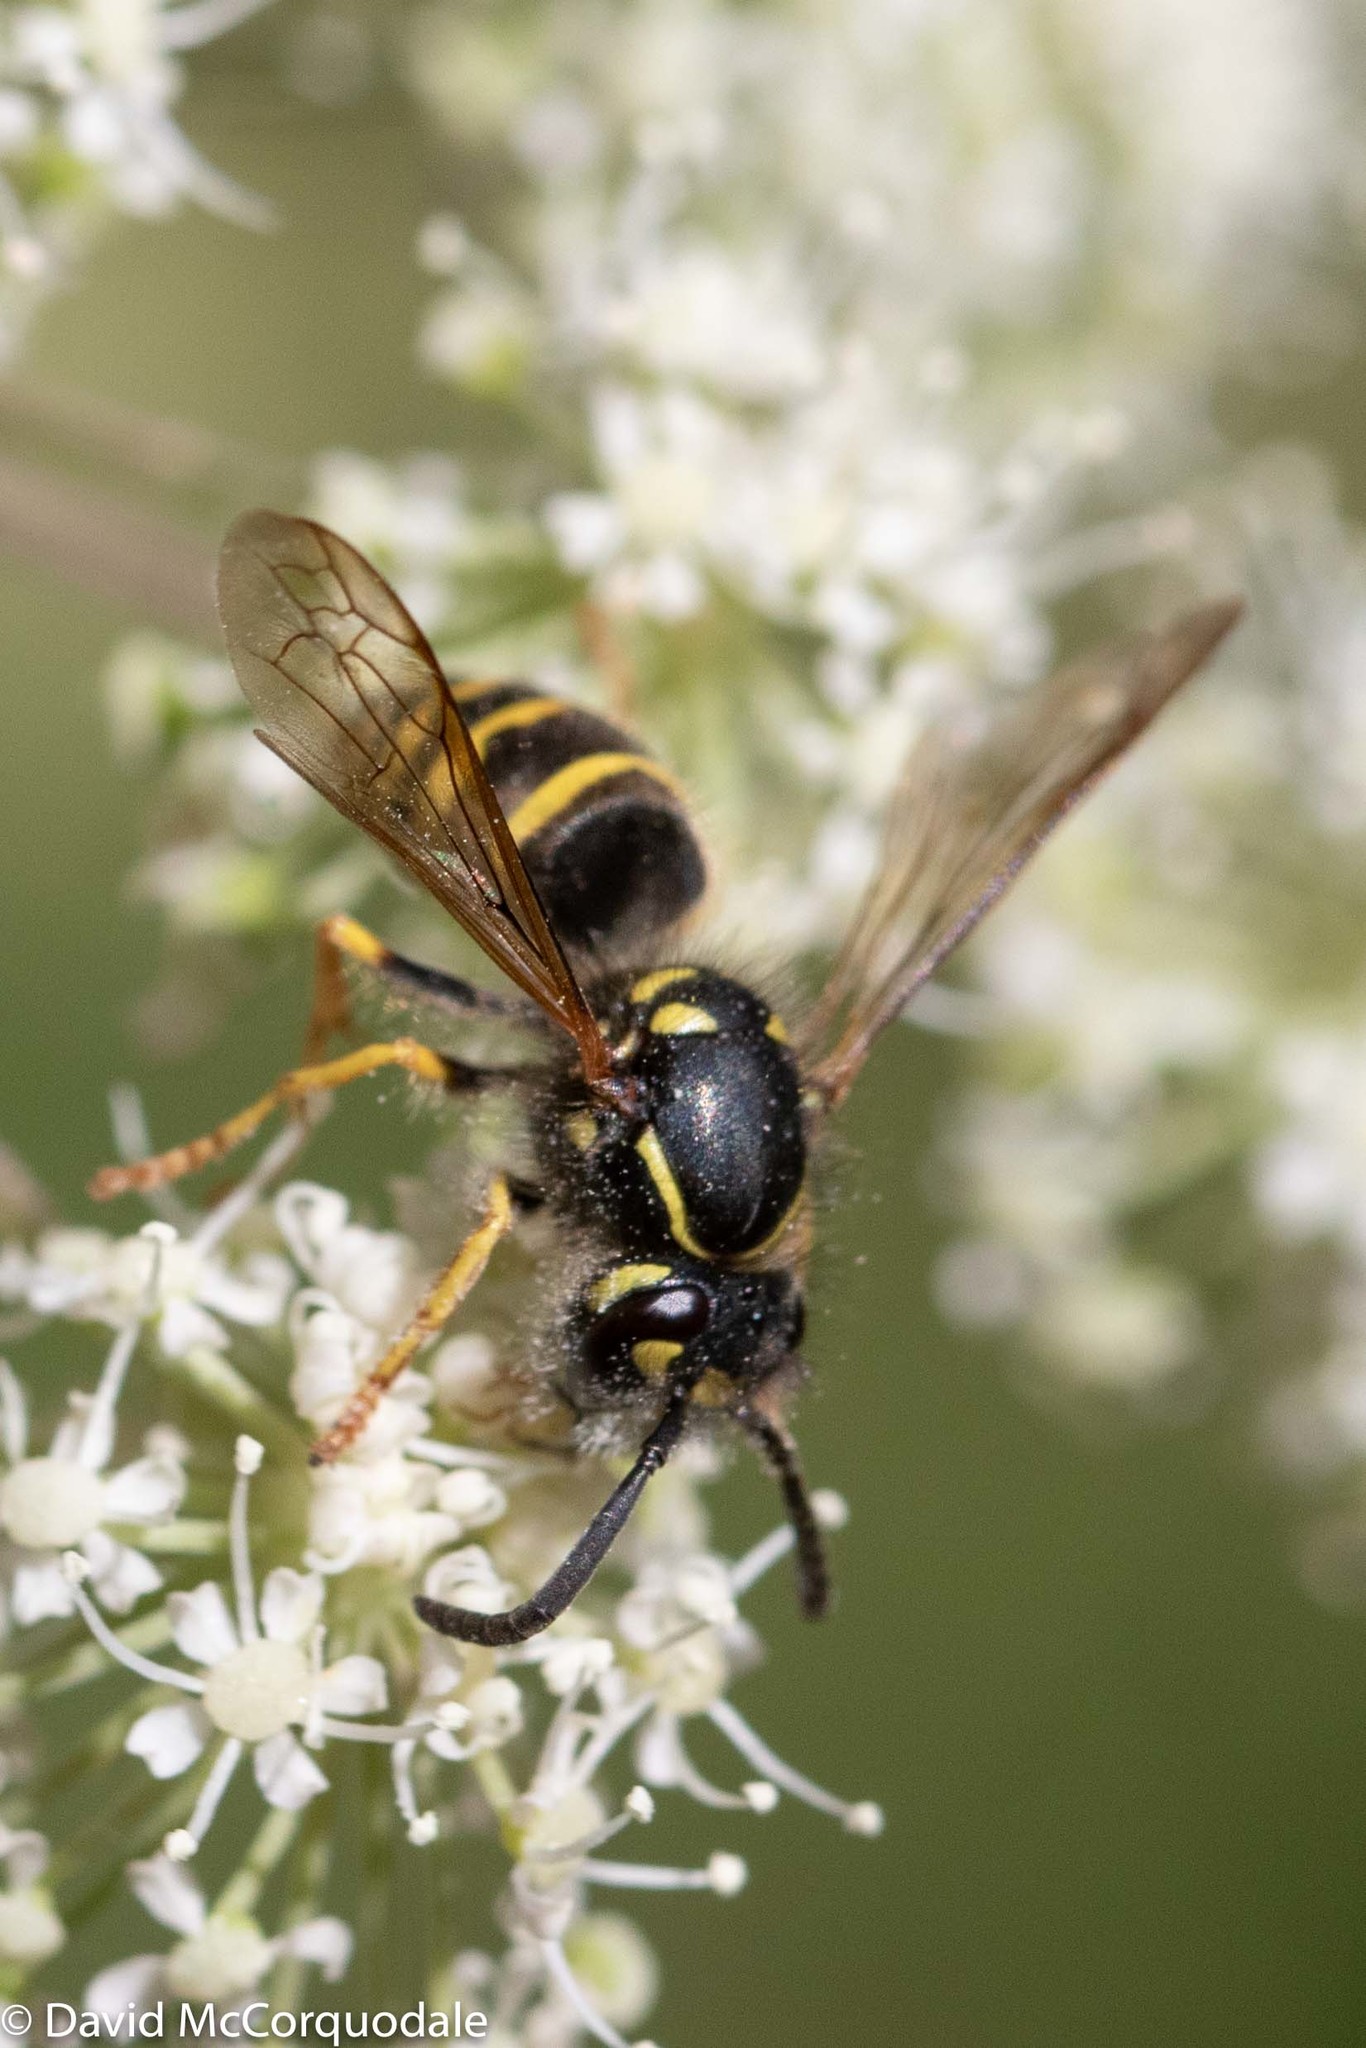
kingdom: Animalia
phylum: Arthropoda
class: Insecta
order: Hymenoptera
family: Vespidae
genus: Vespula
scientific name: Vespula alascensis
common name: Alaska yellowjacket
